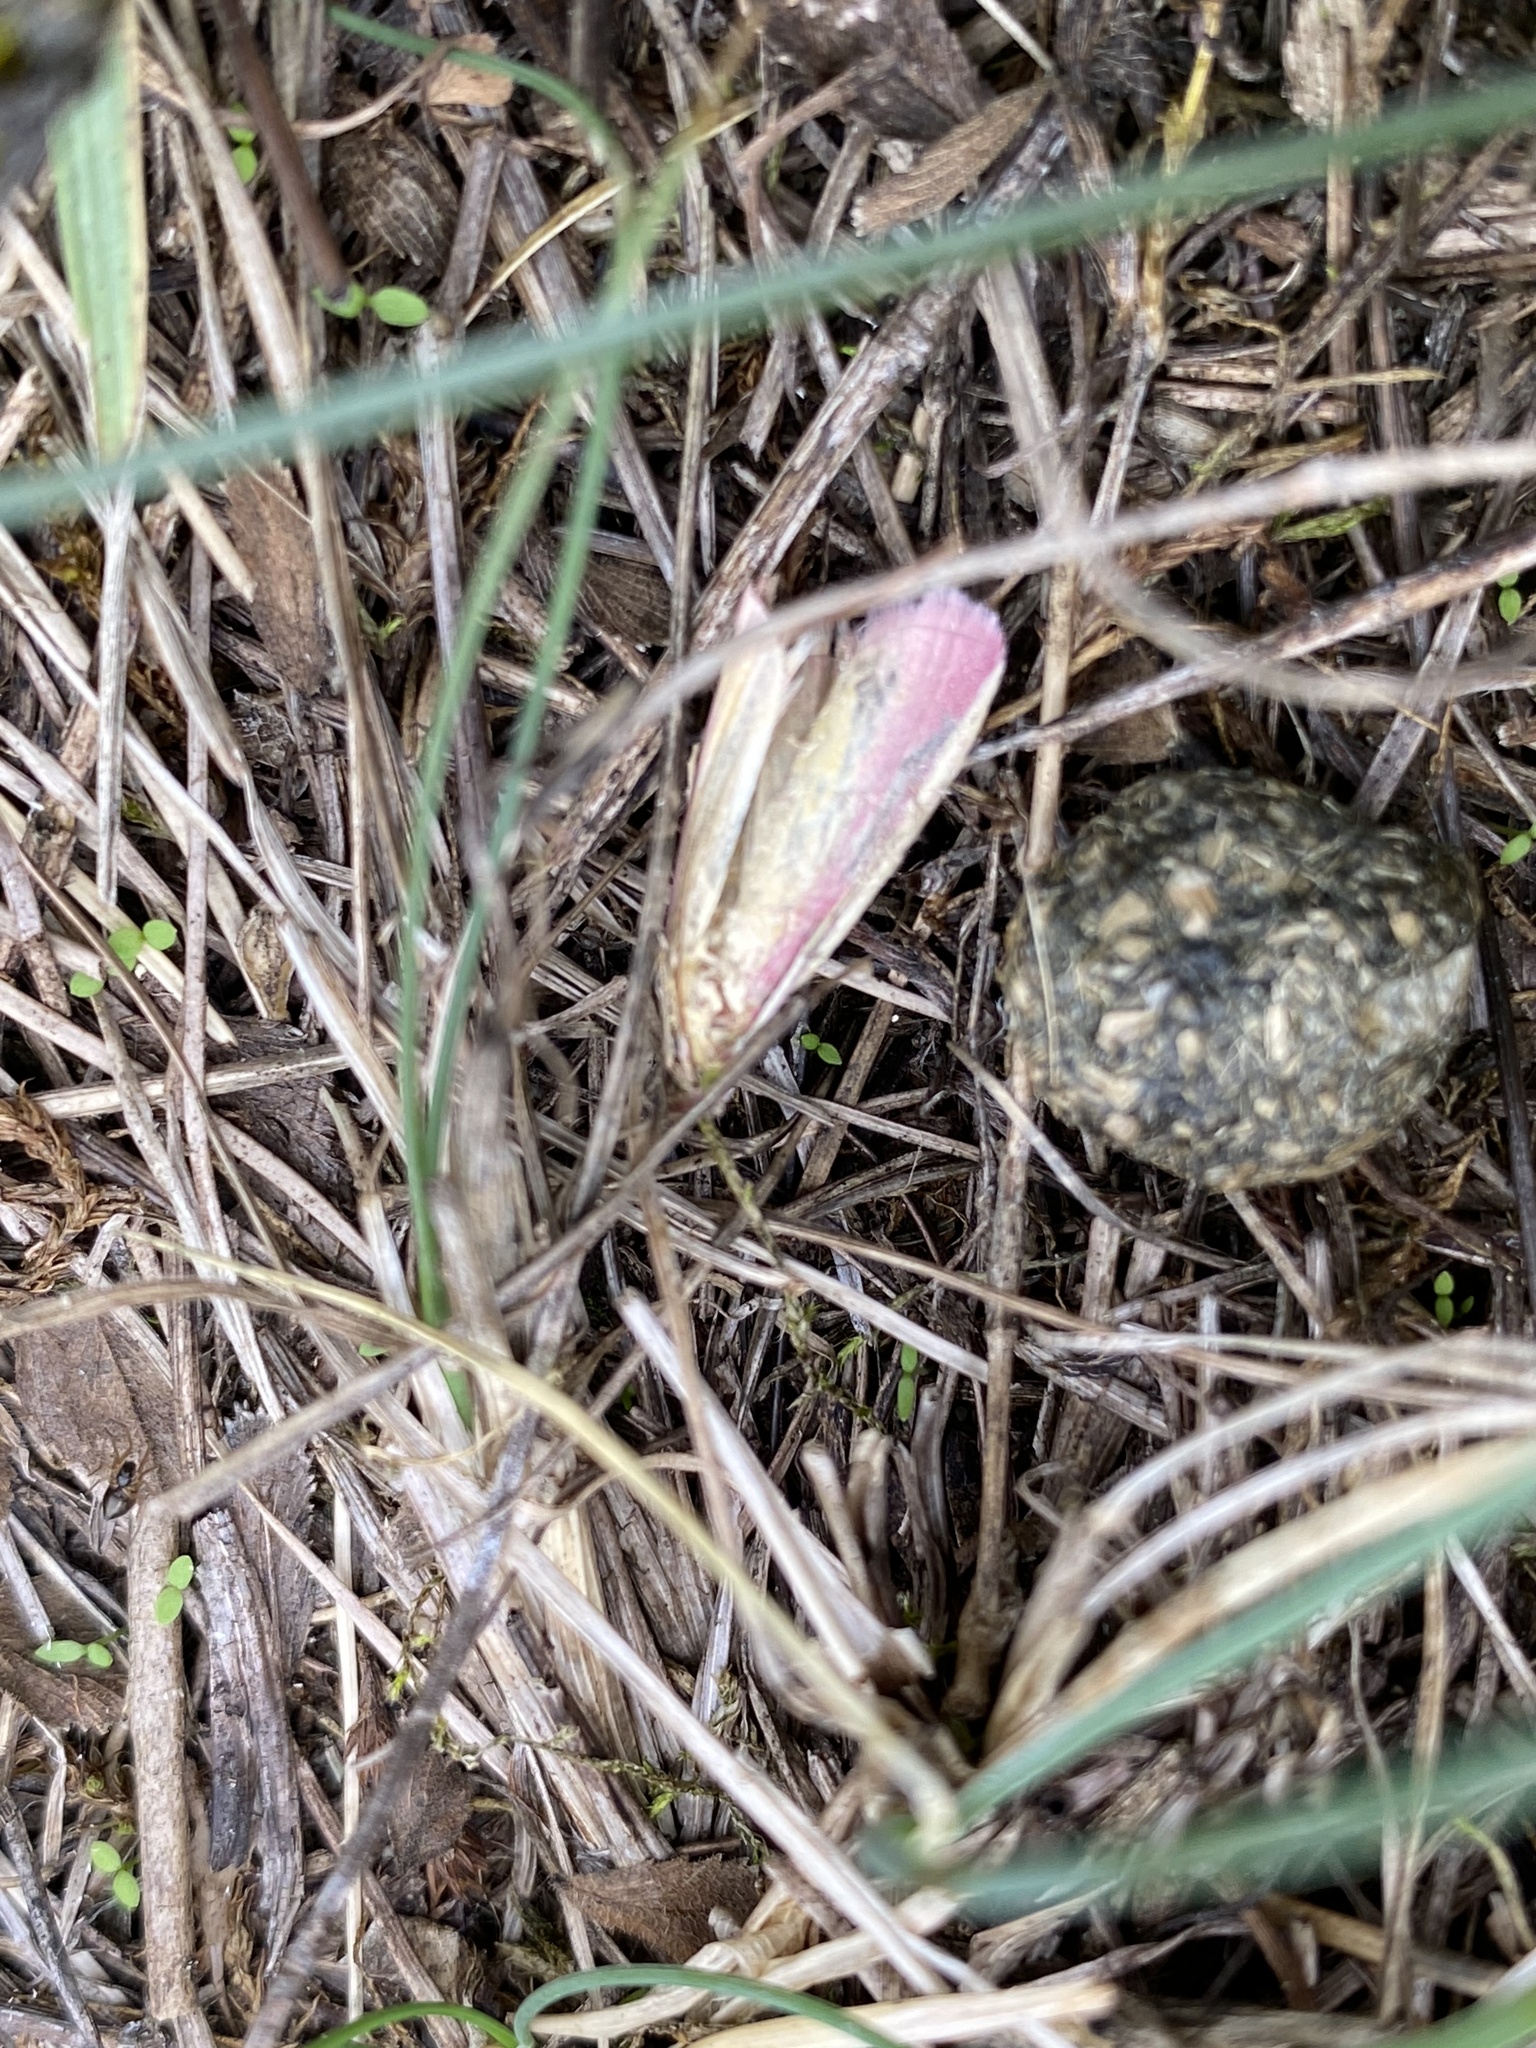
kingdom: Animalia
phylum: Arthropoda
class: Insecta
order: Lepidoptera
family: Pyralidae
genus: Oncocera
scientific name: Oncocera semirubella
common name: Rosy-striped knot-horn
